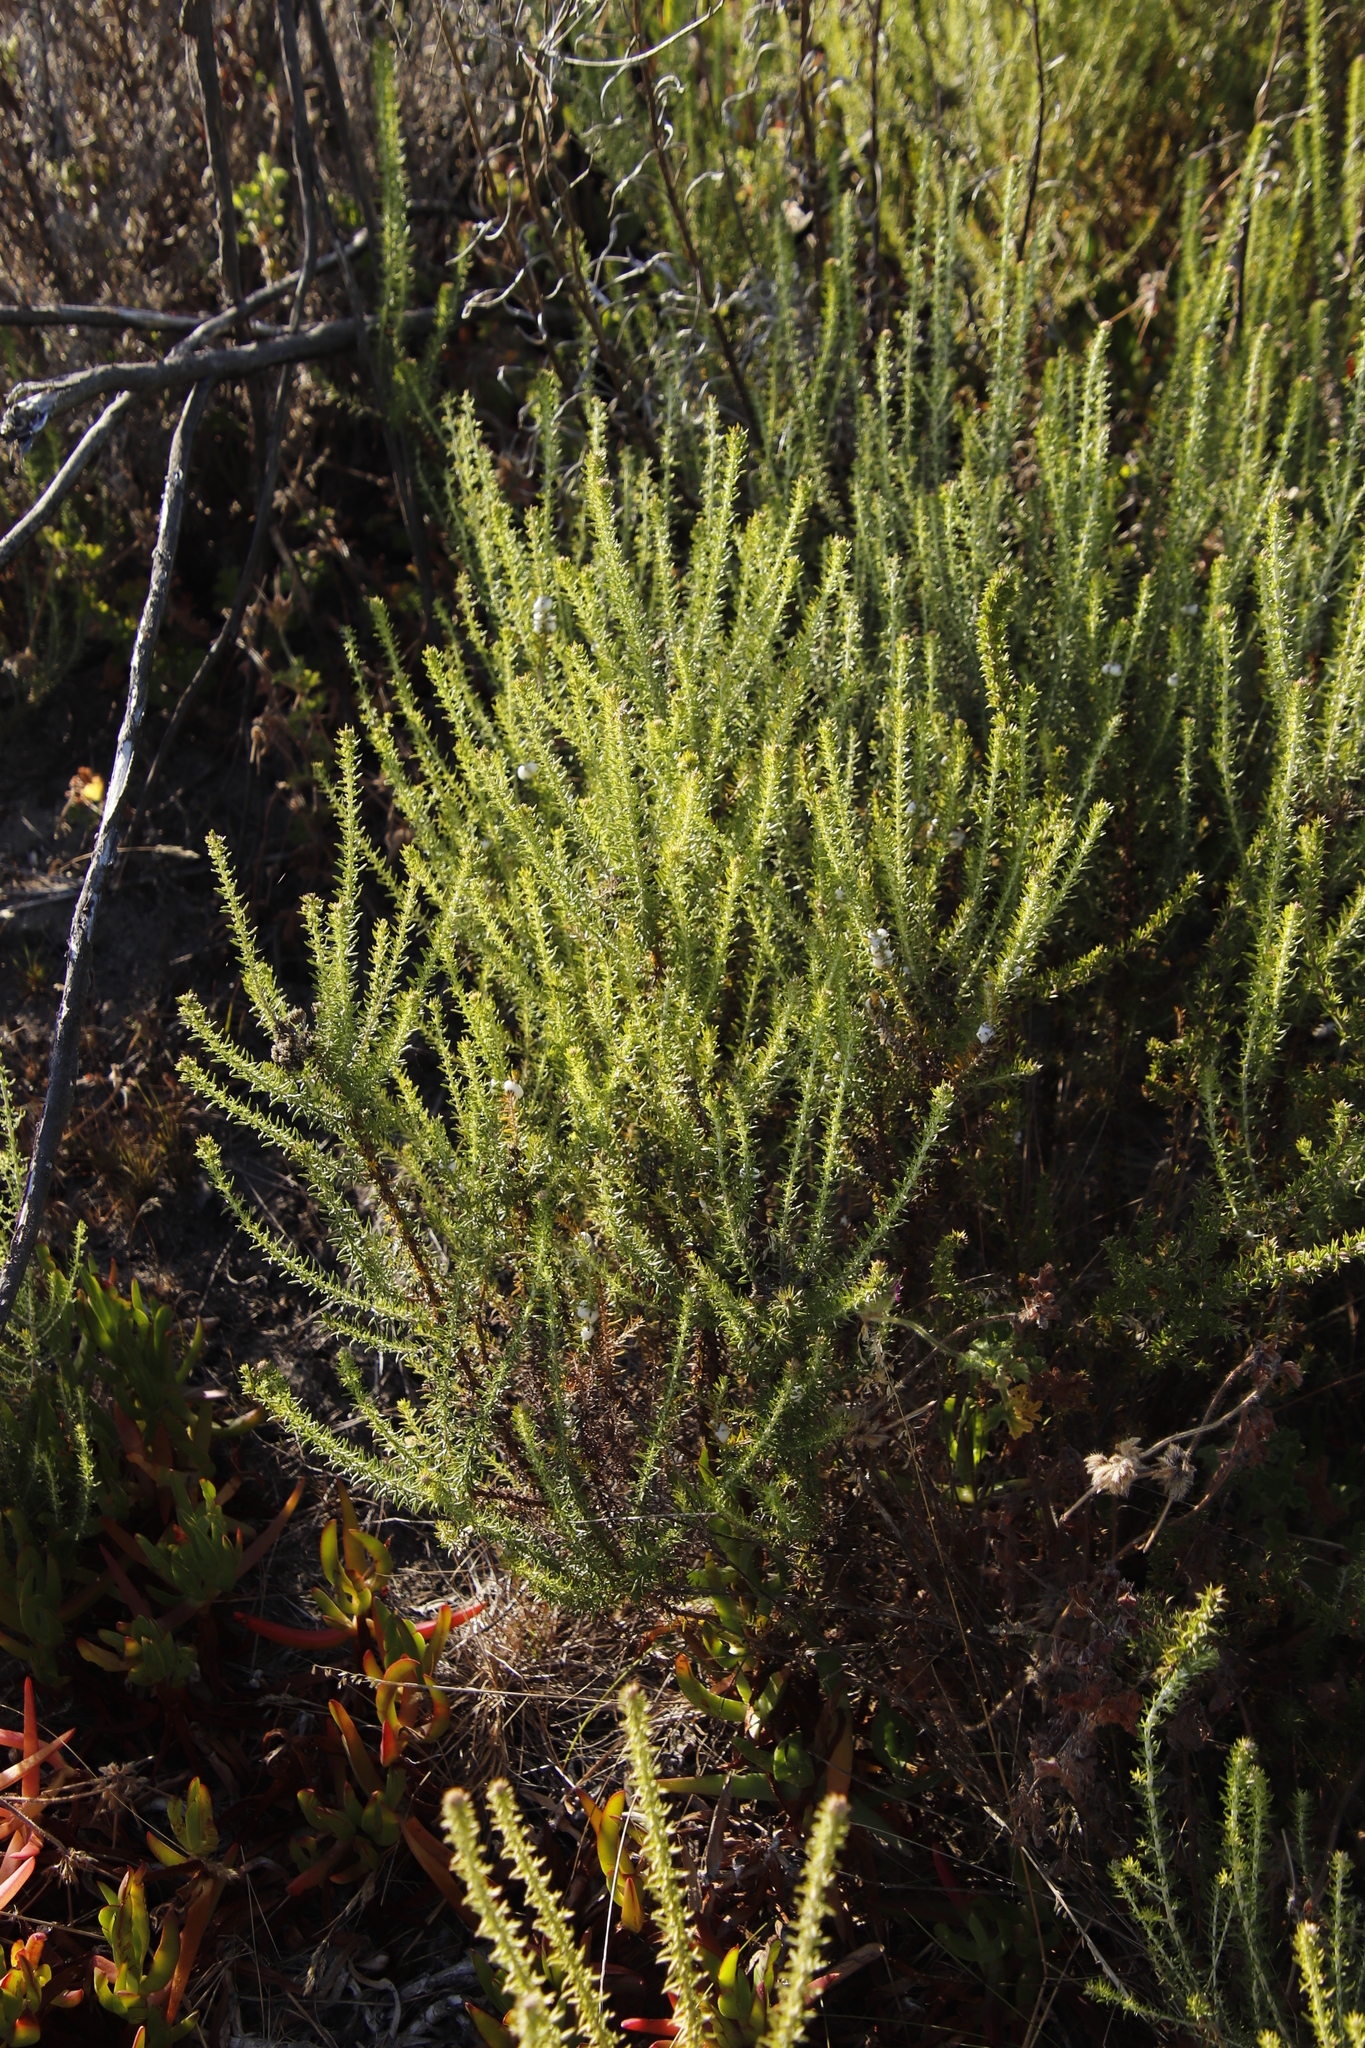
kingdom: Plantae
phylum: Tracheophyta
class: Magnoliopsida
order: Asterales
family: Asteraceae
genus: Metalasia
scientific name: Metalasia densa
